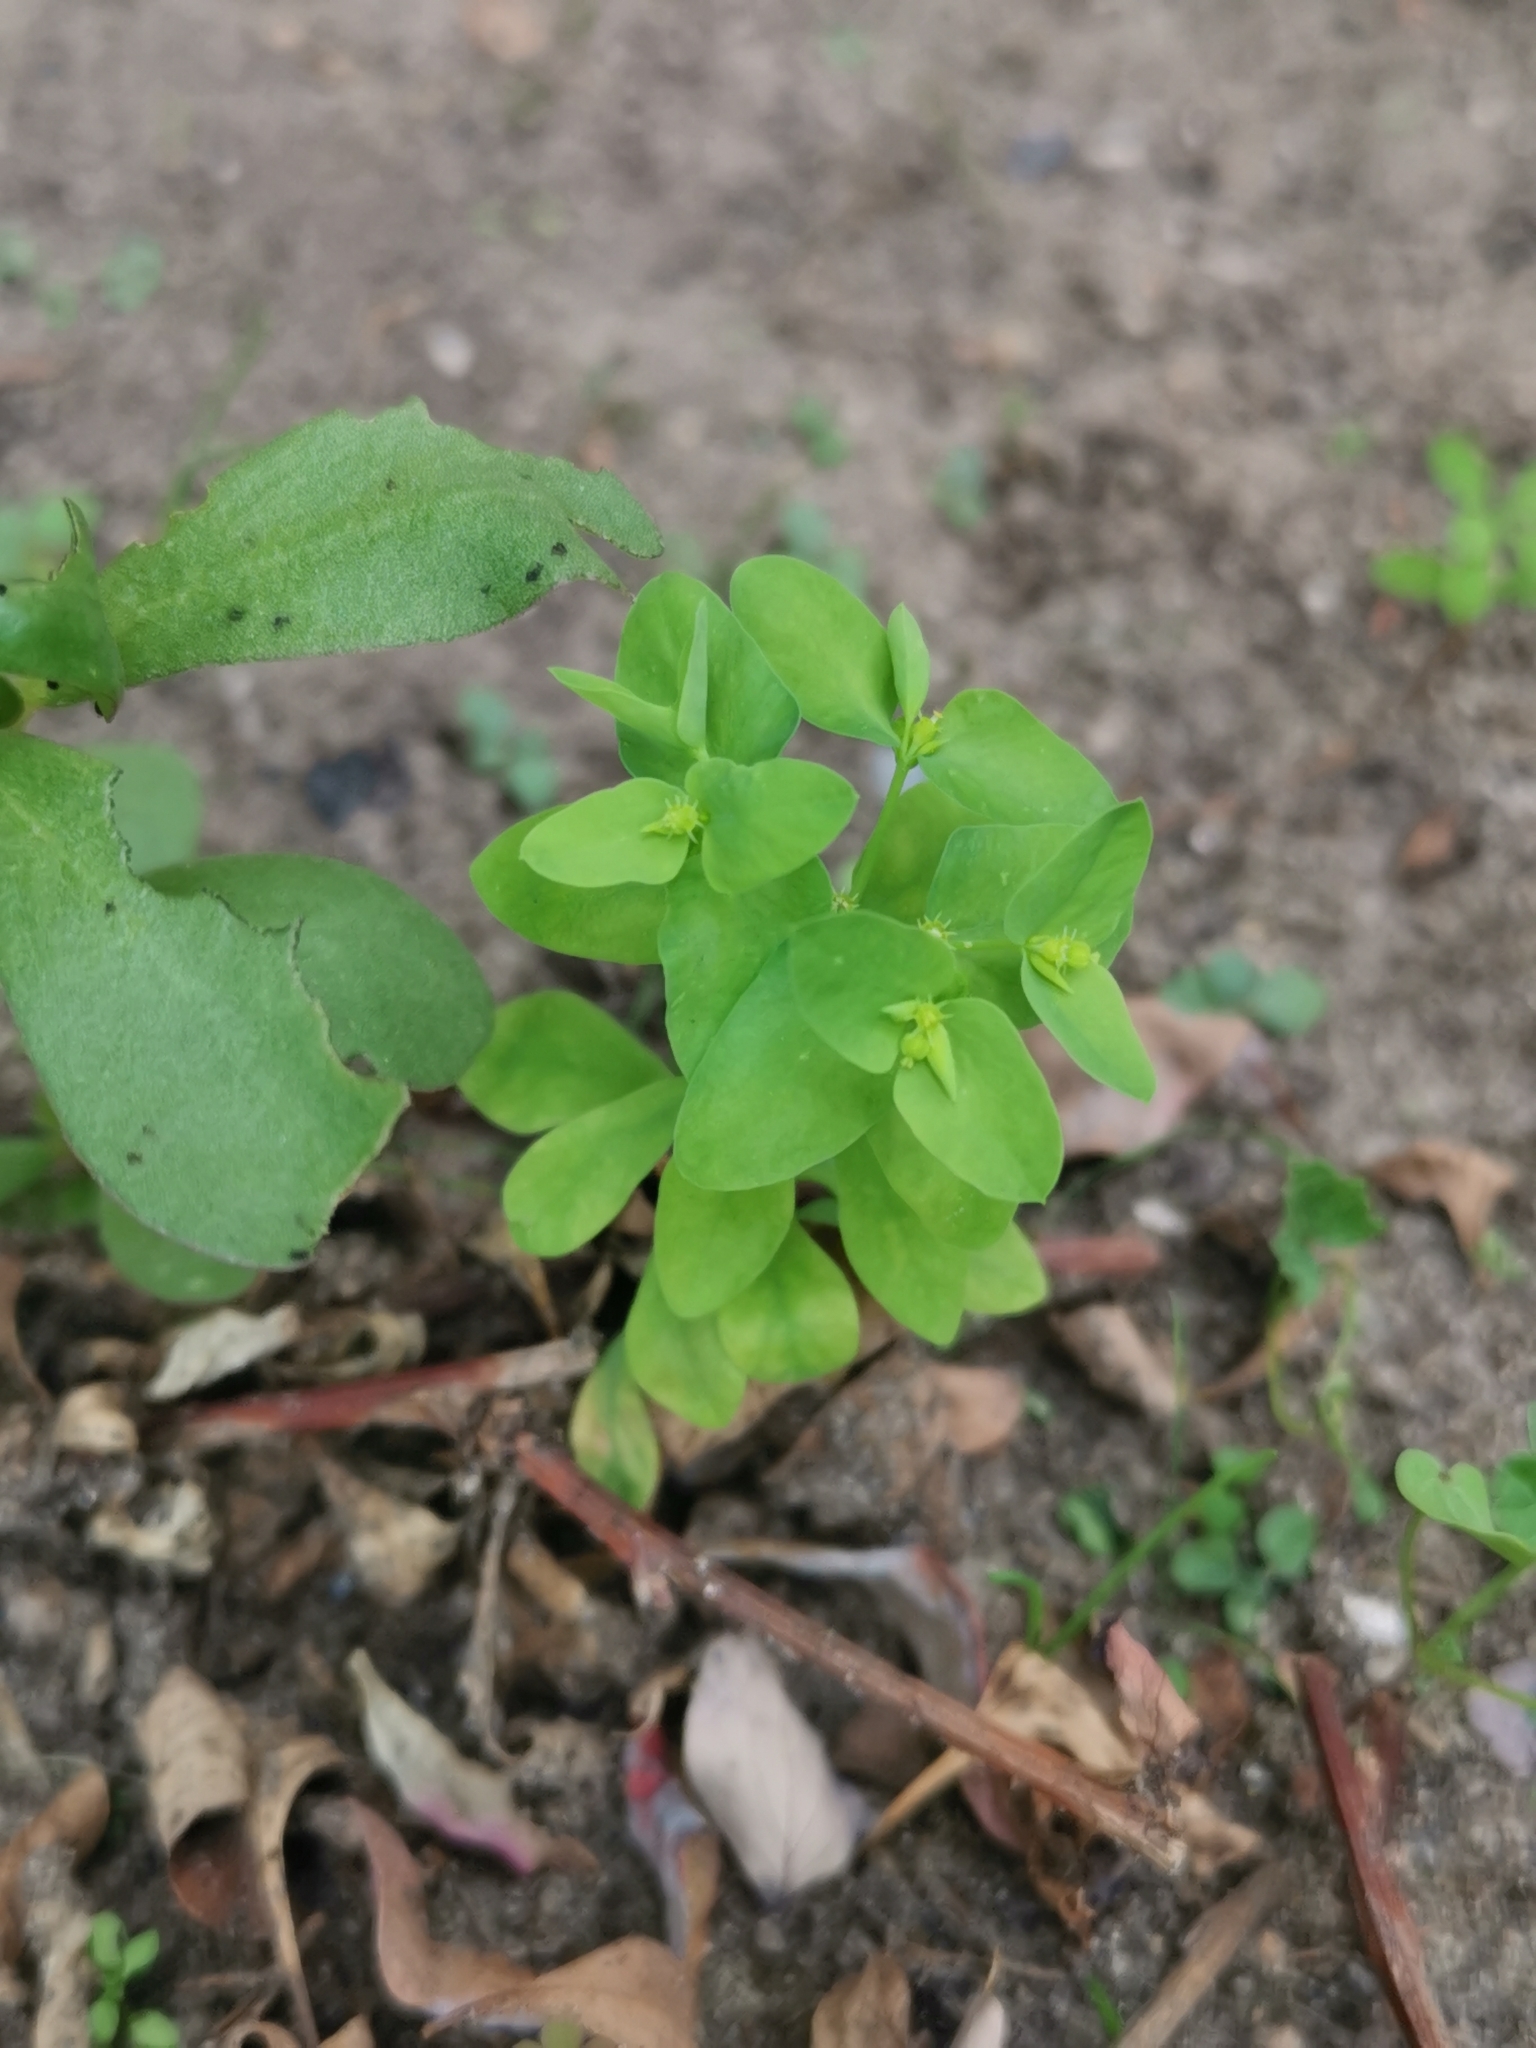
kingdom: Plantae
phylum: Tracheophyta
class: Magnoliopsida
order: Malpighiales
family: Euphorbiaceae
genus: Euphorbia
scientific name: Euphorbia peplus
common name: Petty spurge
